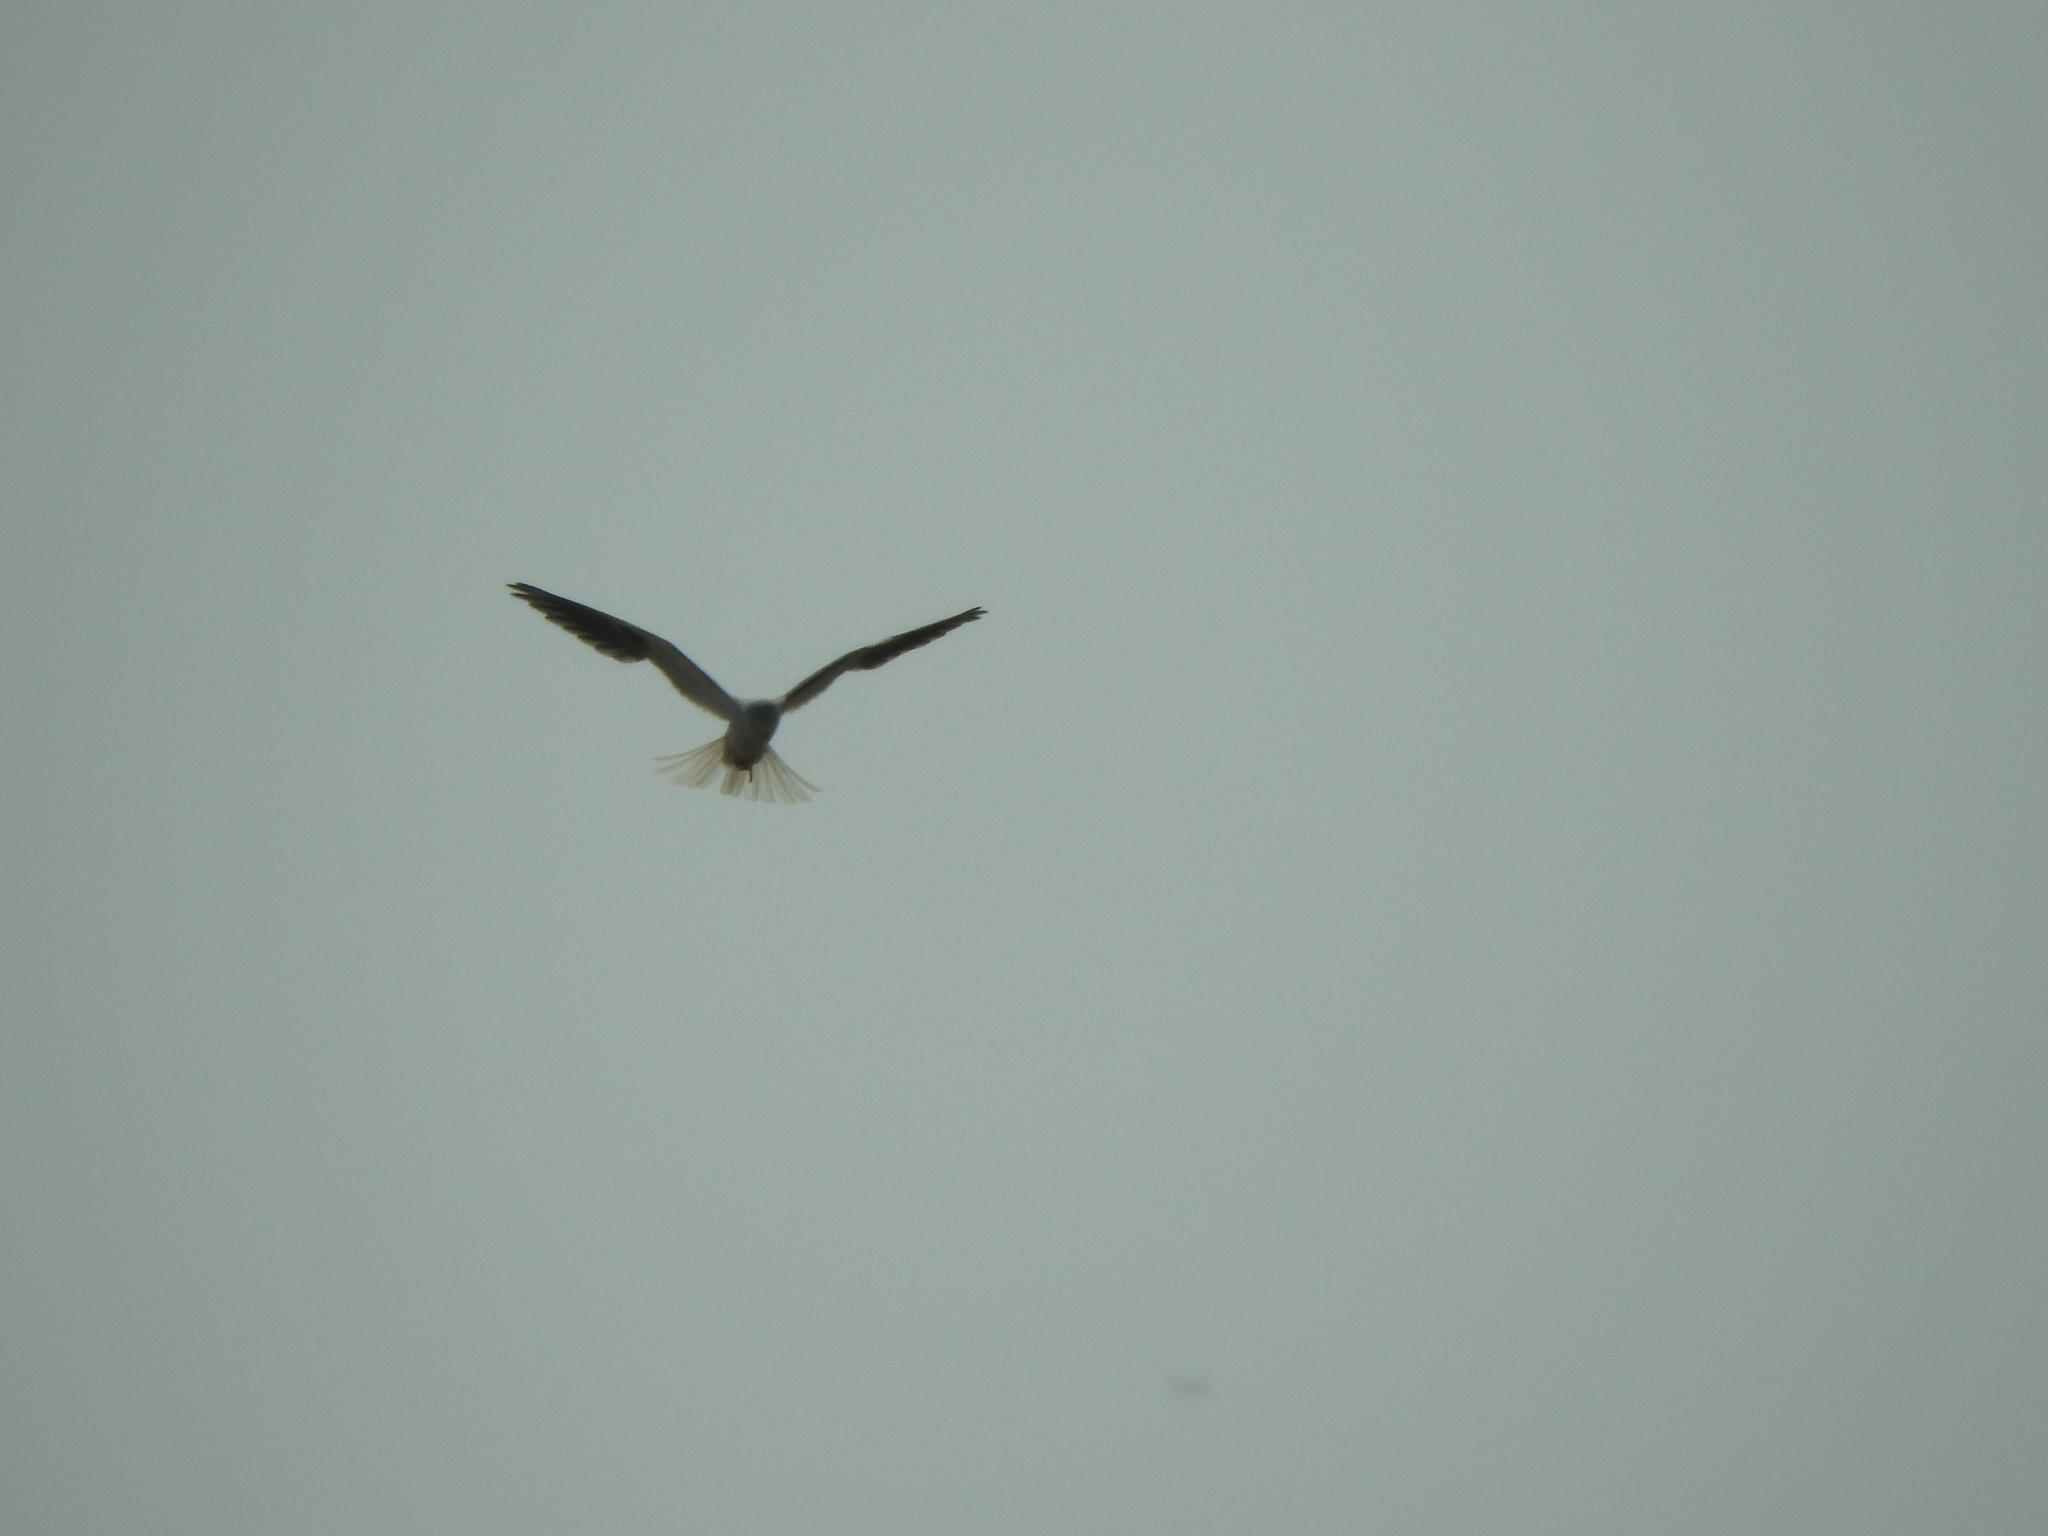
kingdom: Animalia
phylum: Chordata
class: Aves
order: Accipitriformes
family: Accipitridae
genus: Elanus
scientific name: Elanus leucurus
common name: White-tailed kite
